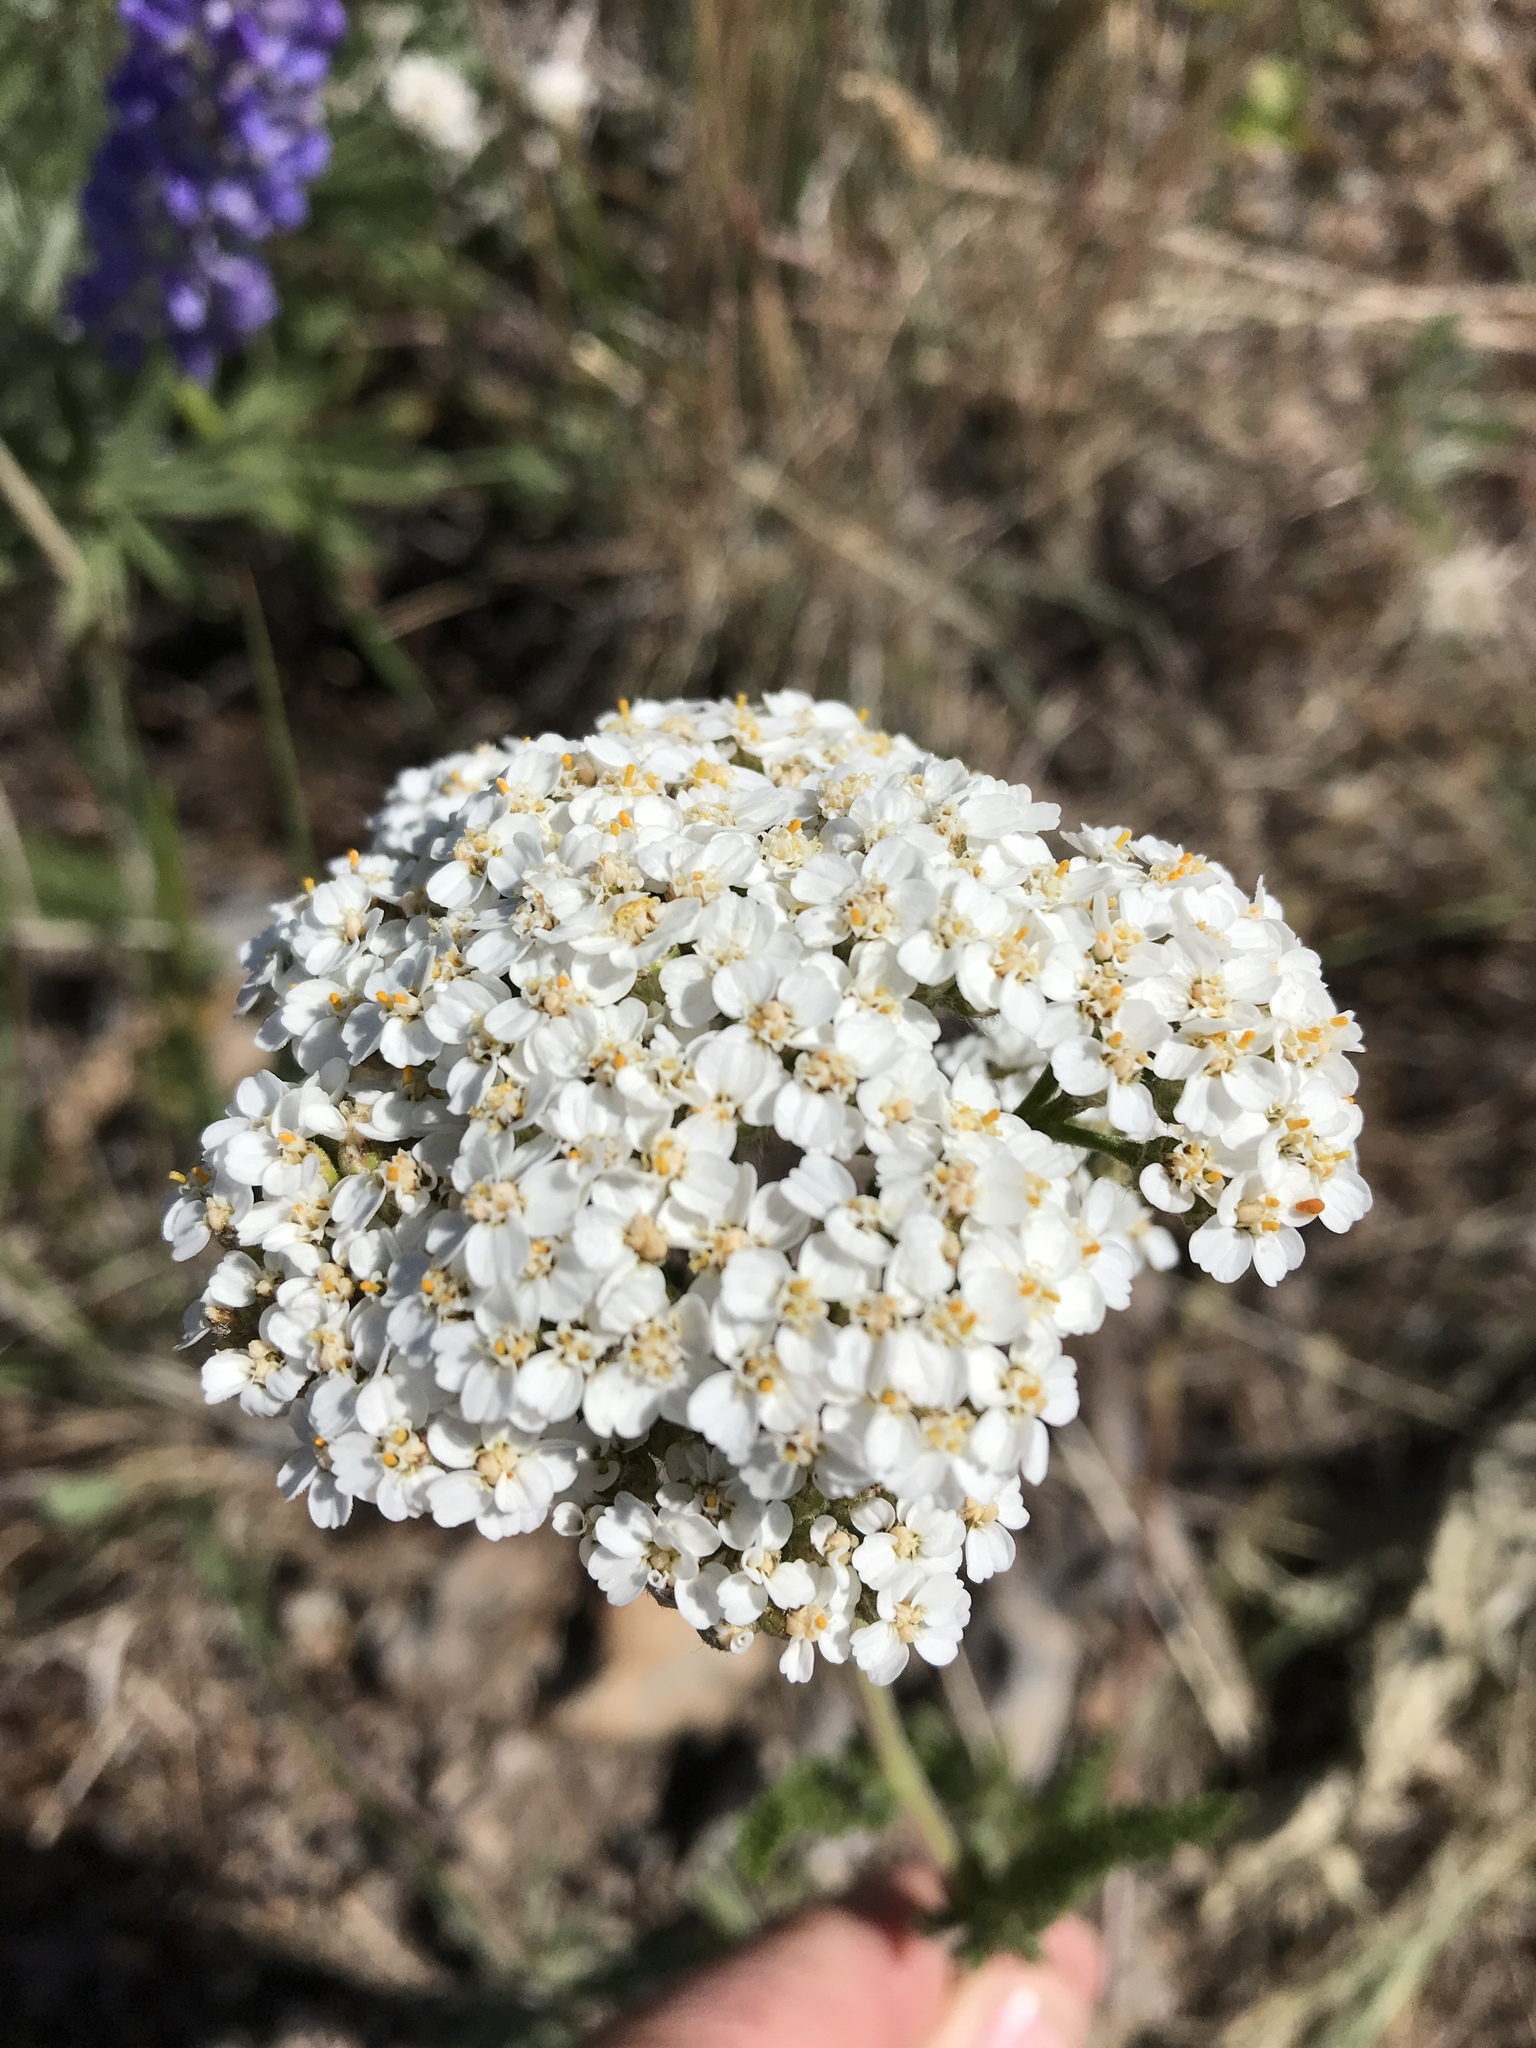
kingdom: Plantae
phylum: Tracheophyta
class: Magnoliopsida
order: Asterales
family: Asteraceae
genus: Achillea
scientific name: Achillea millefolium
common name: Yarrow
